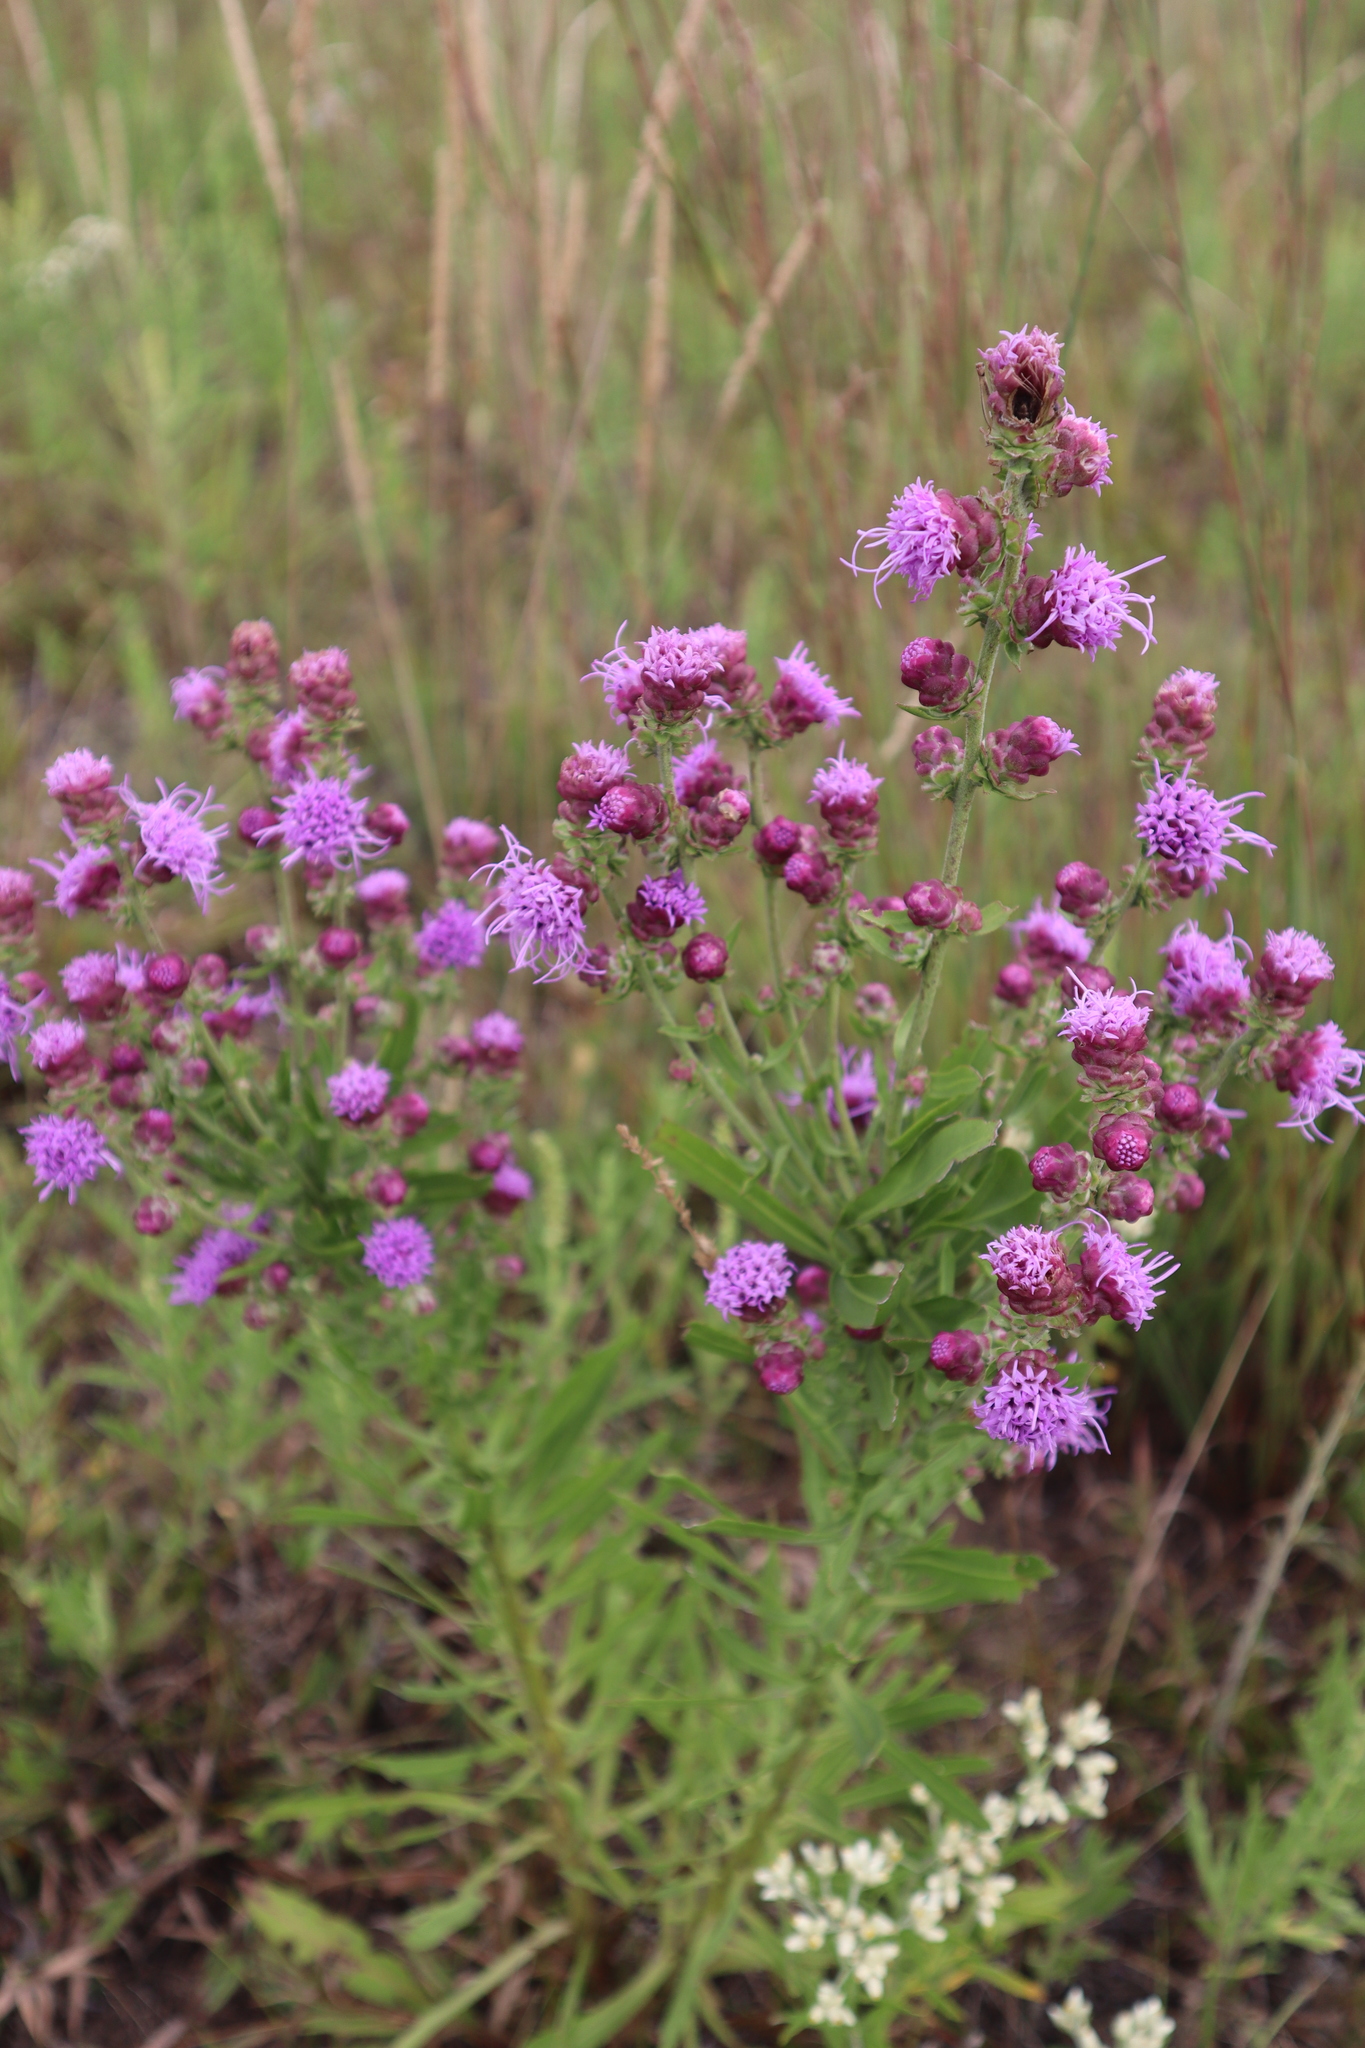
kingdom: Plantae
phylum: Tracheophyta
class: Magnoliopsida
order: Asterales
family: Asteraceae
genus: Liatris
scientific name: Liatris aspera
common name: Lacerate blazing-star
